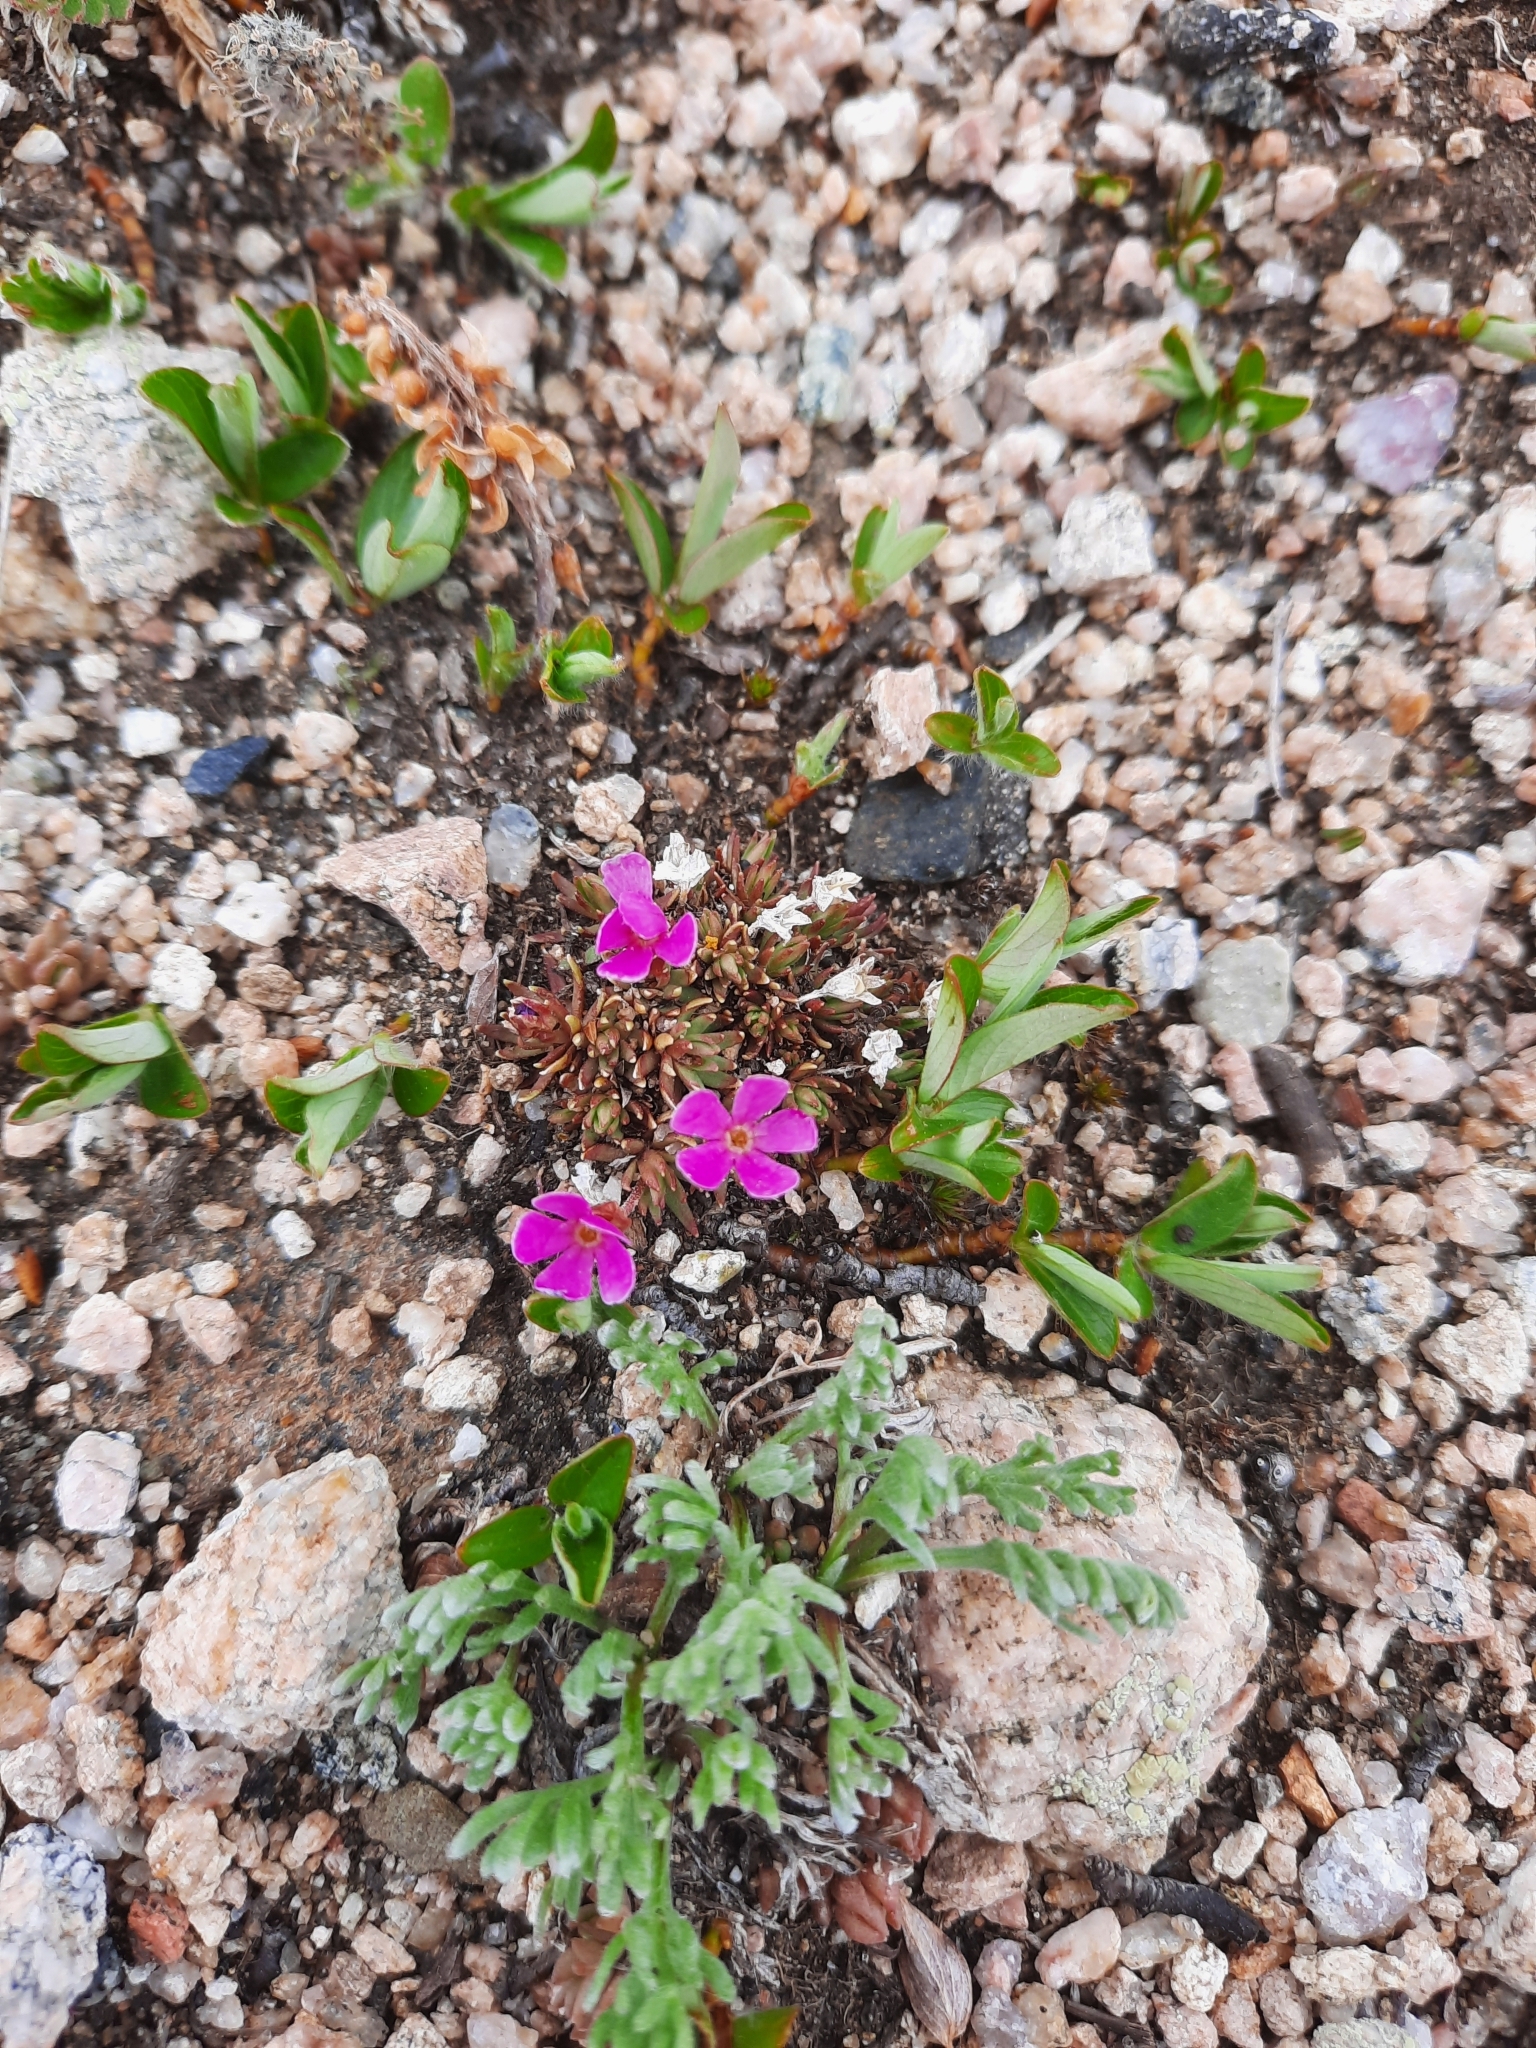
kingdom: Plantae
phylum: Tracheophyta
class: Magnoliopsida
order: Ericales
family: Primulaceae
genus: Androsace
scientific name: Androsace montana
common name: Rocky mountain dwarf-primrose
